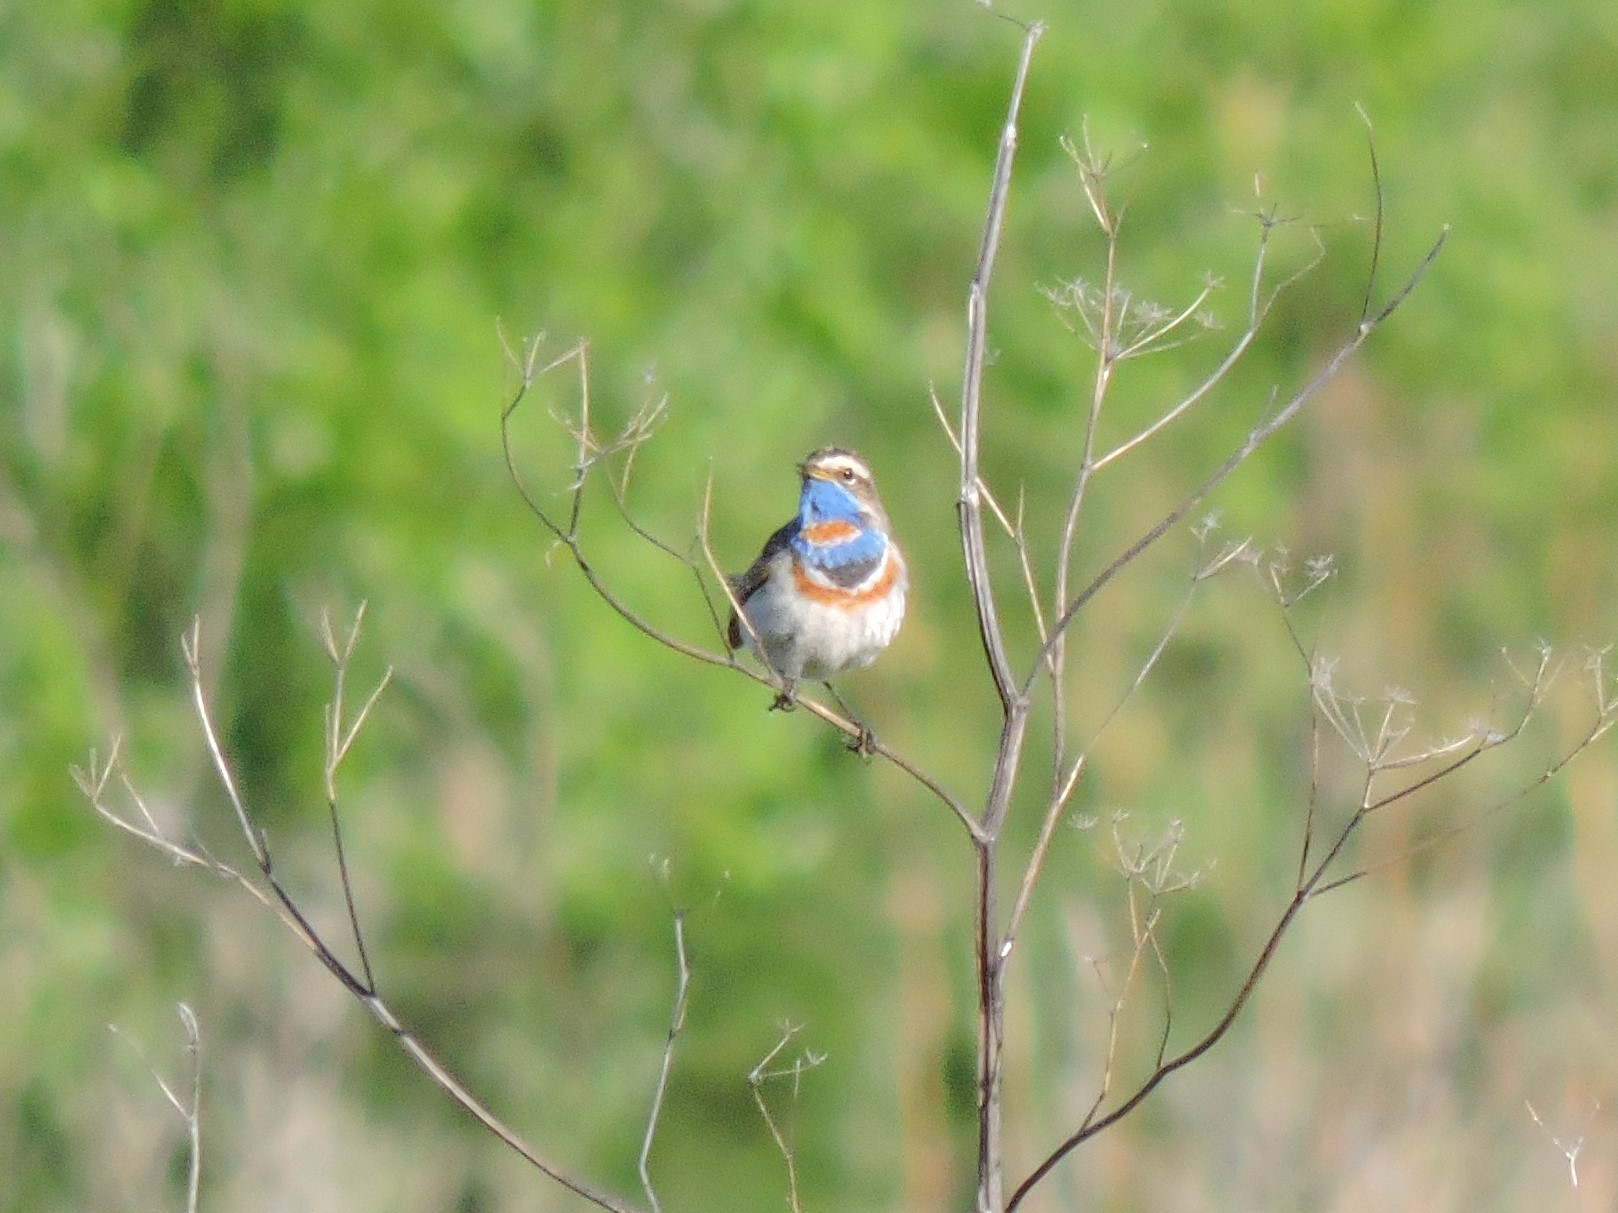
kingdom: Animalia
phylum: Chordata
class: Aves
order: Passeriformes
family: Muscicapidae
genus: Luscinia
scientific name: Luscinia svecica
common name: Bluethroat
